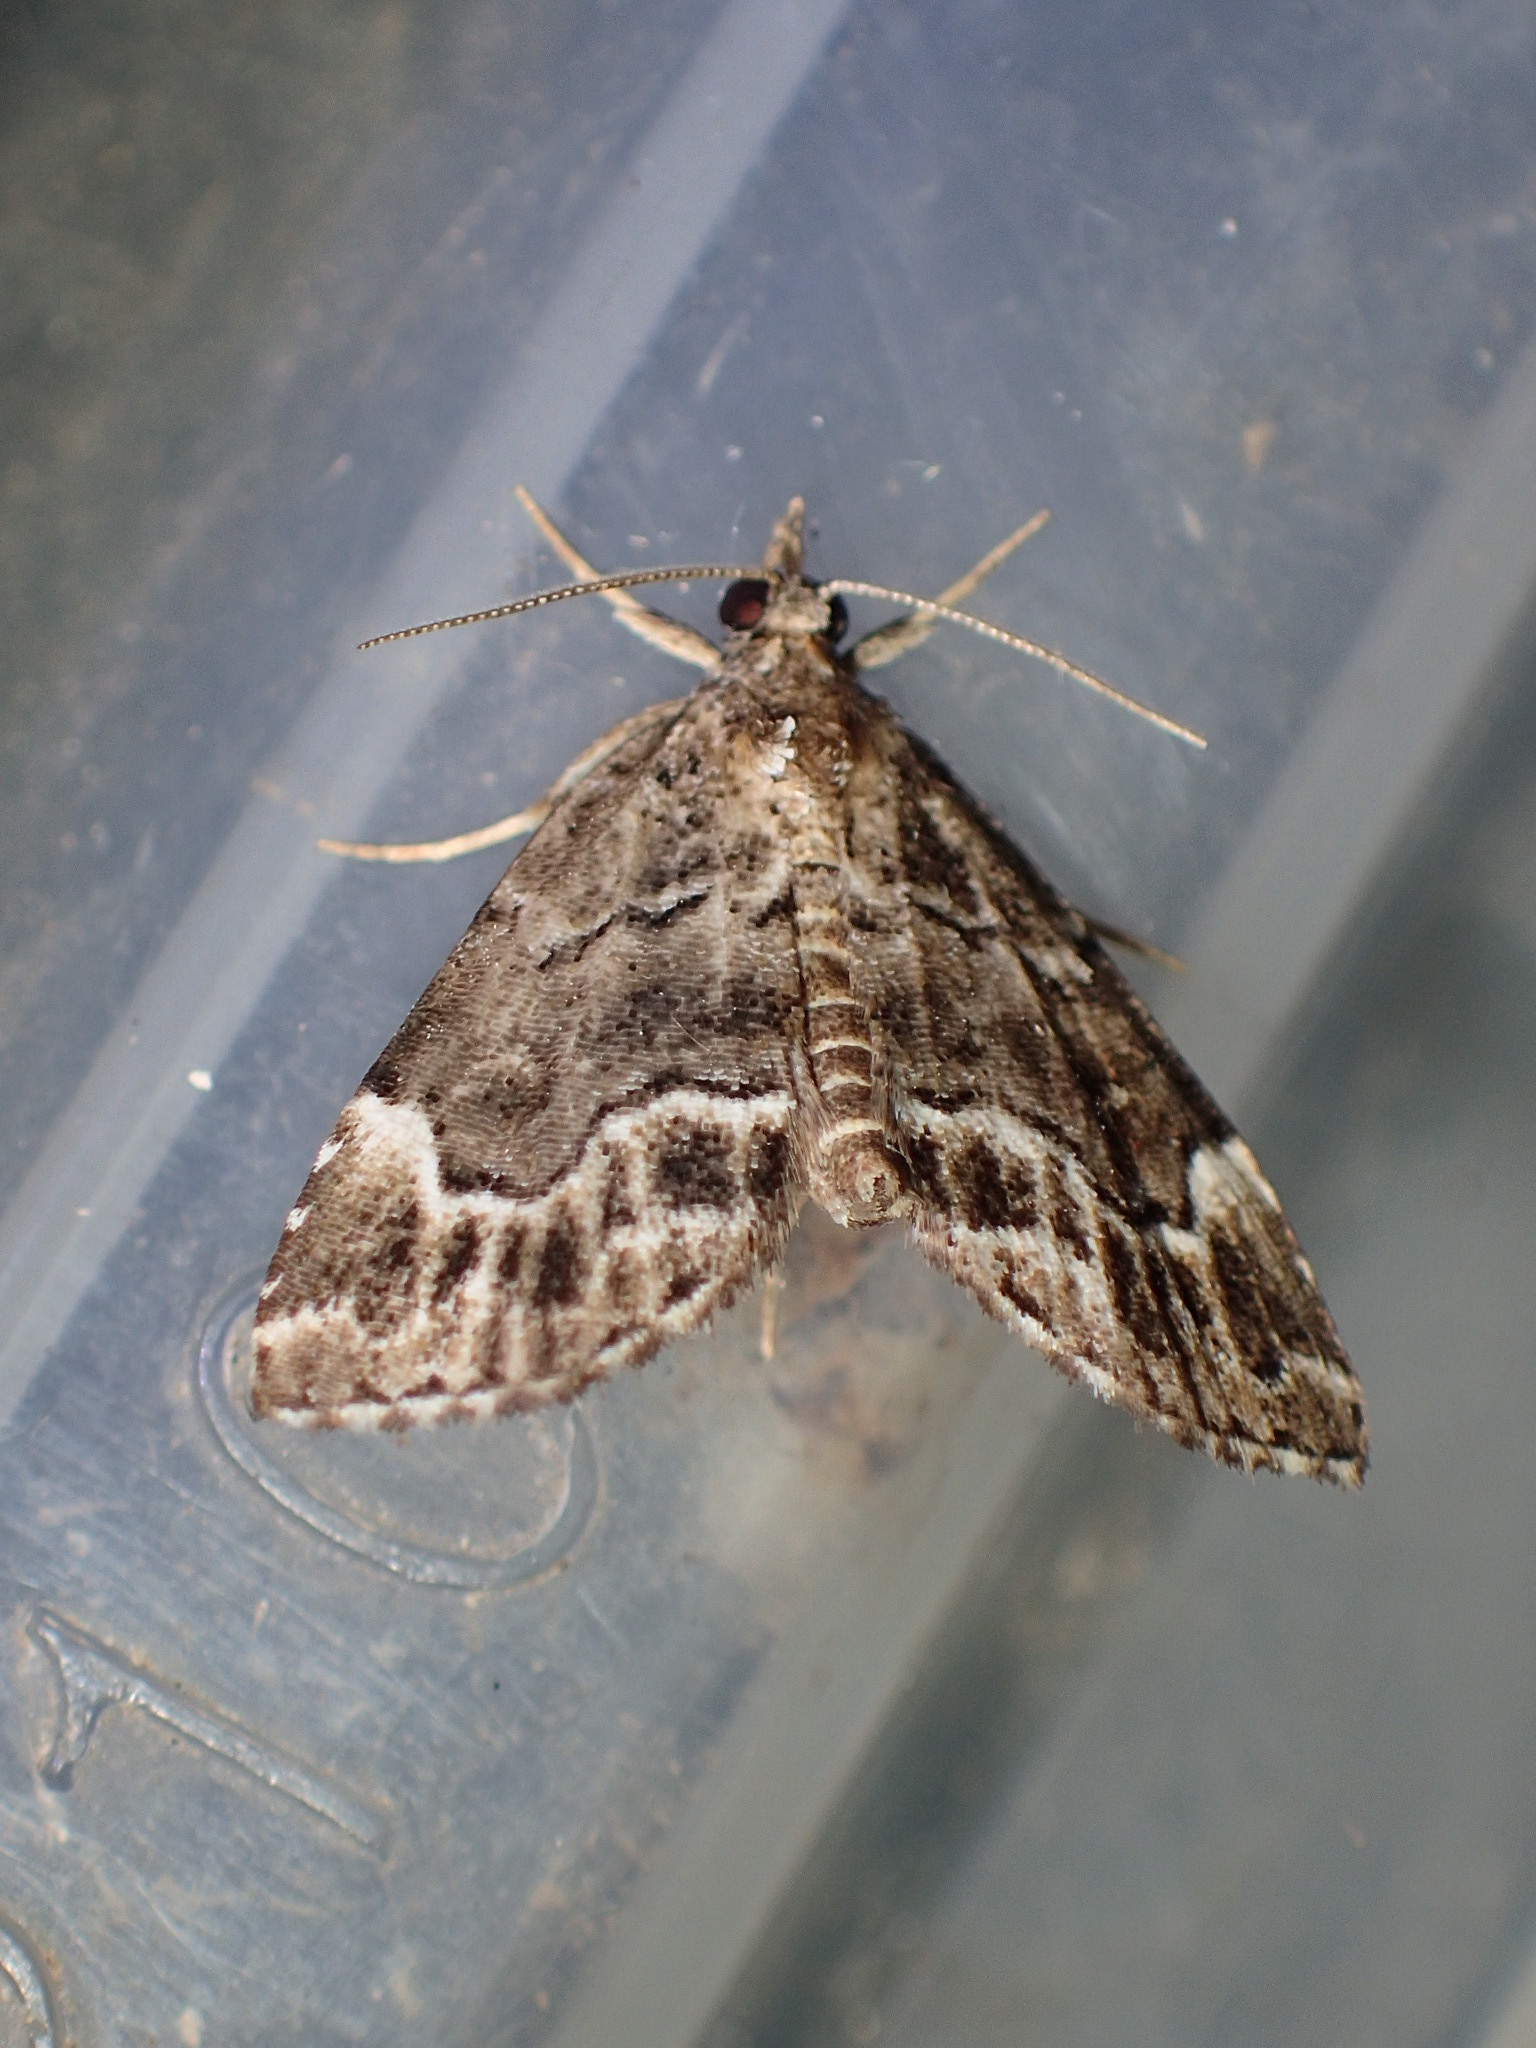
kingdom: Animalia
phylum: Arthropoda
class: Insecta
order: Lepidoptera
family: Erebidae
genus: Cutina
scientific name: Cutina arcuata
